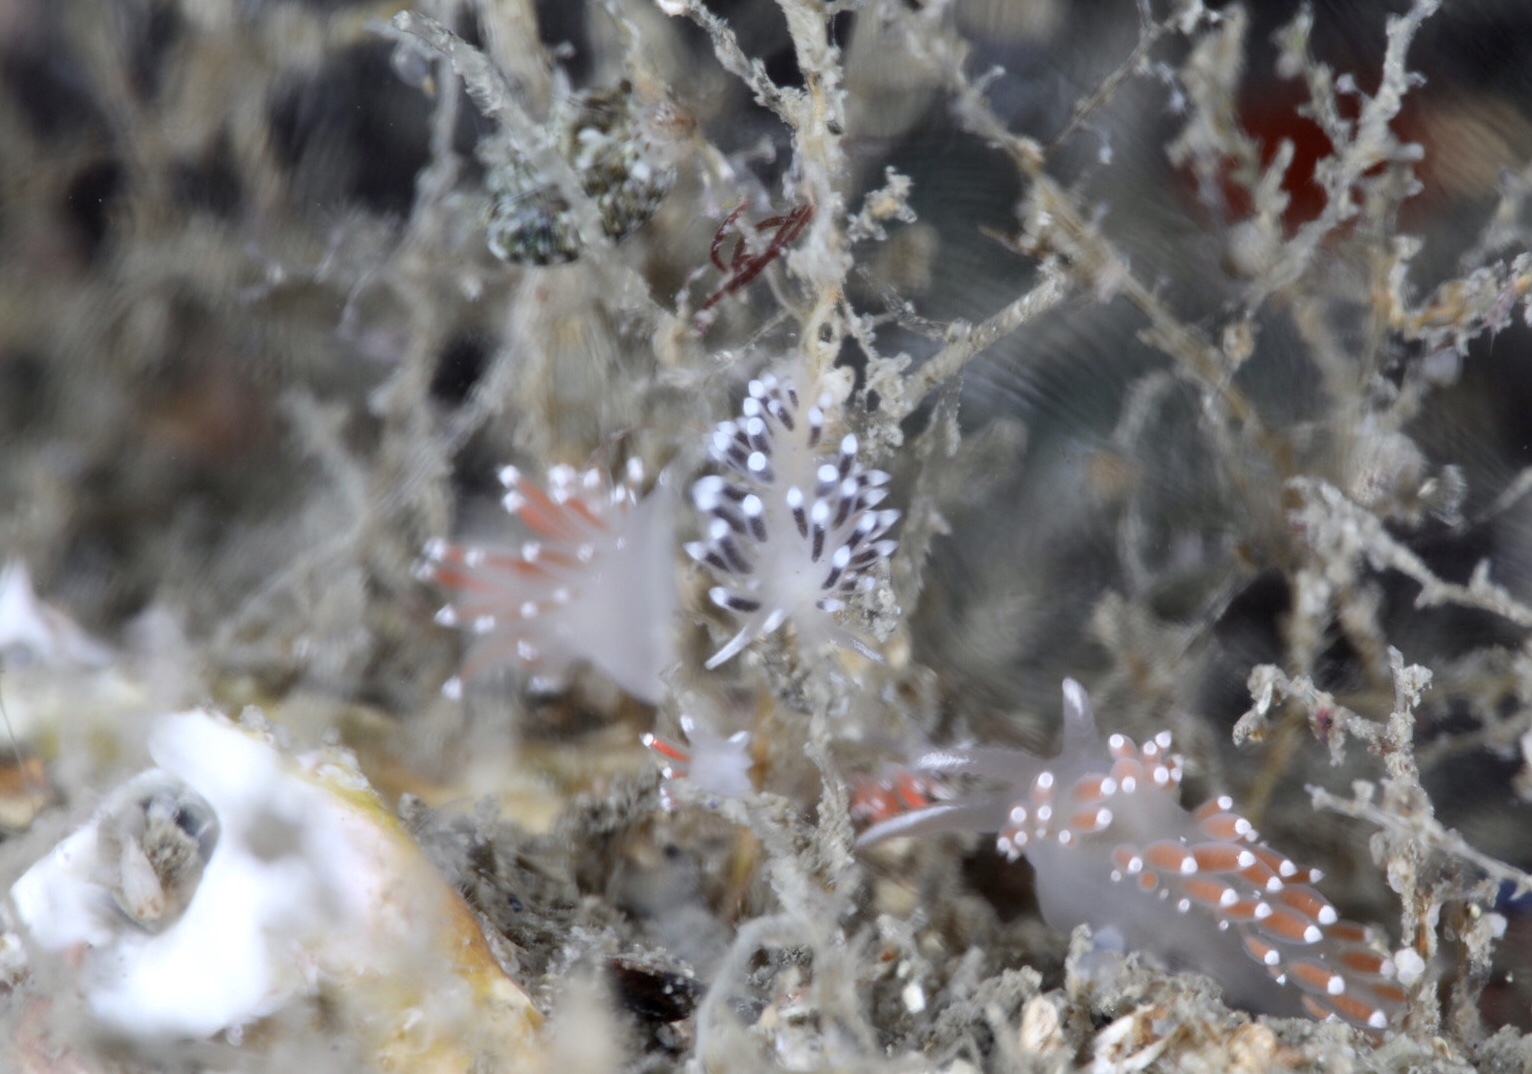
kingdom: Animalia
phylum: Mollusca
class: Gastropoda
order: Nudibranchia
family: Cuthonellidae
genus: Cuthonella
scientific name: Cuthonella concinna
